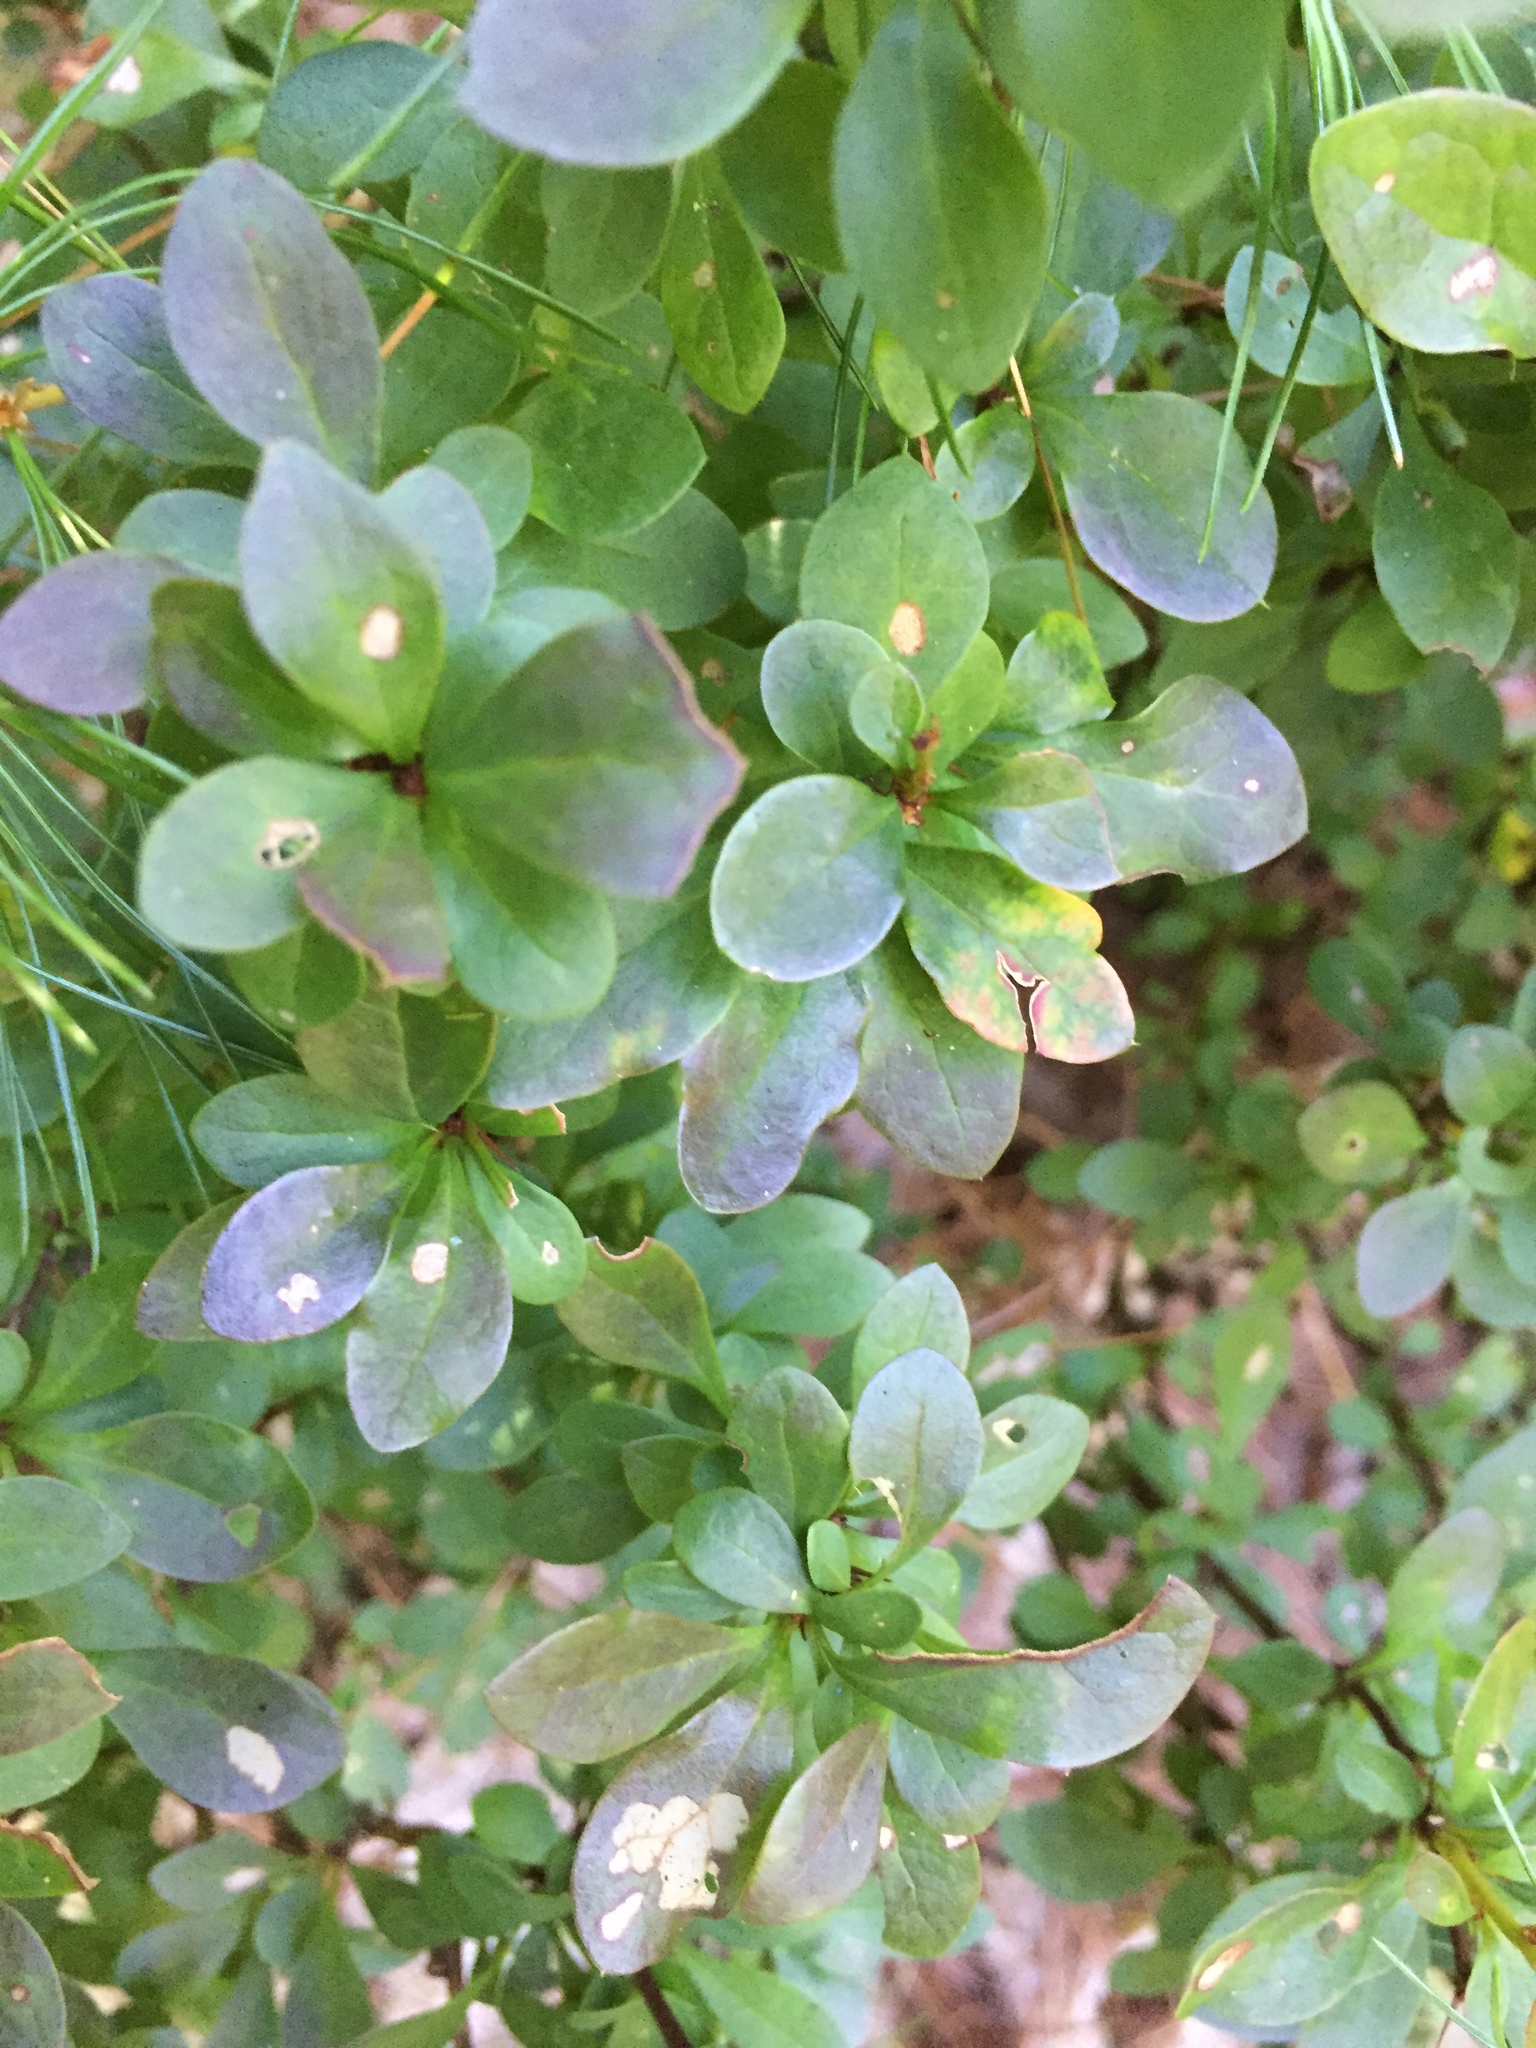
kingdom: Plantae
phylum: Tracheophyta
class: Magnoliopsida
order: Ranunculales
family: Berberidaceae
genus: Berberis
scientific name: Berberis thunbergii
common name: Japanese barberry
